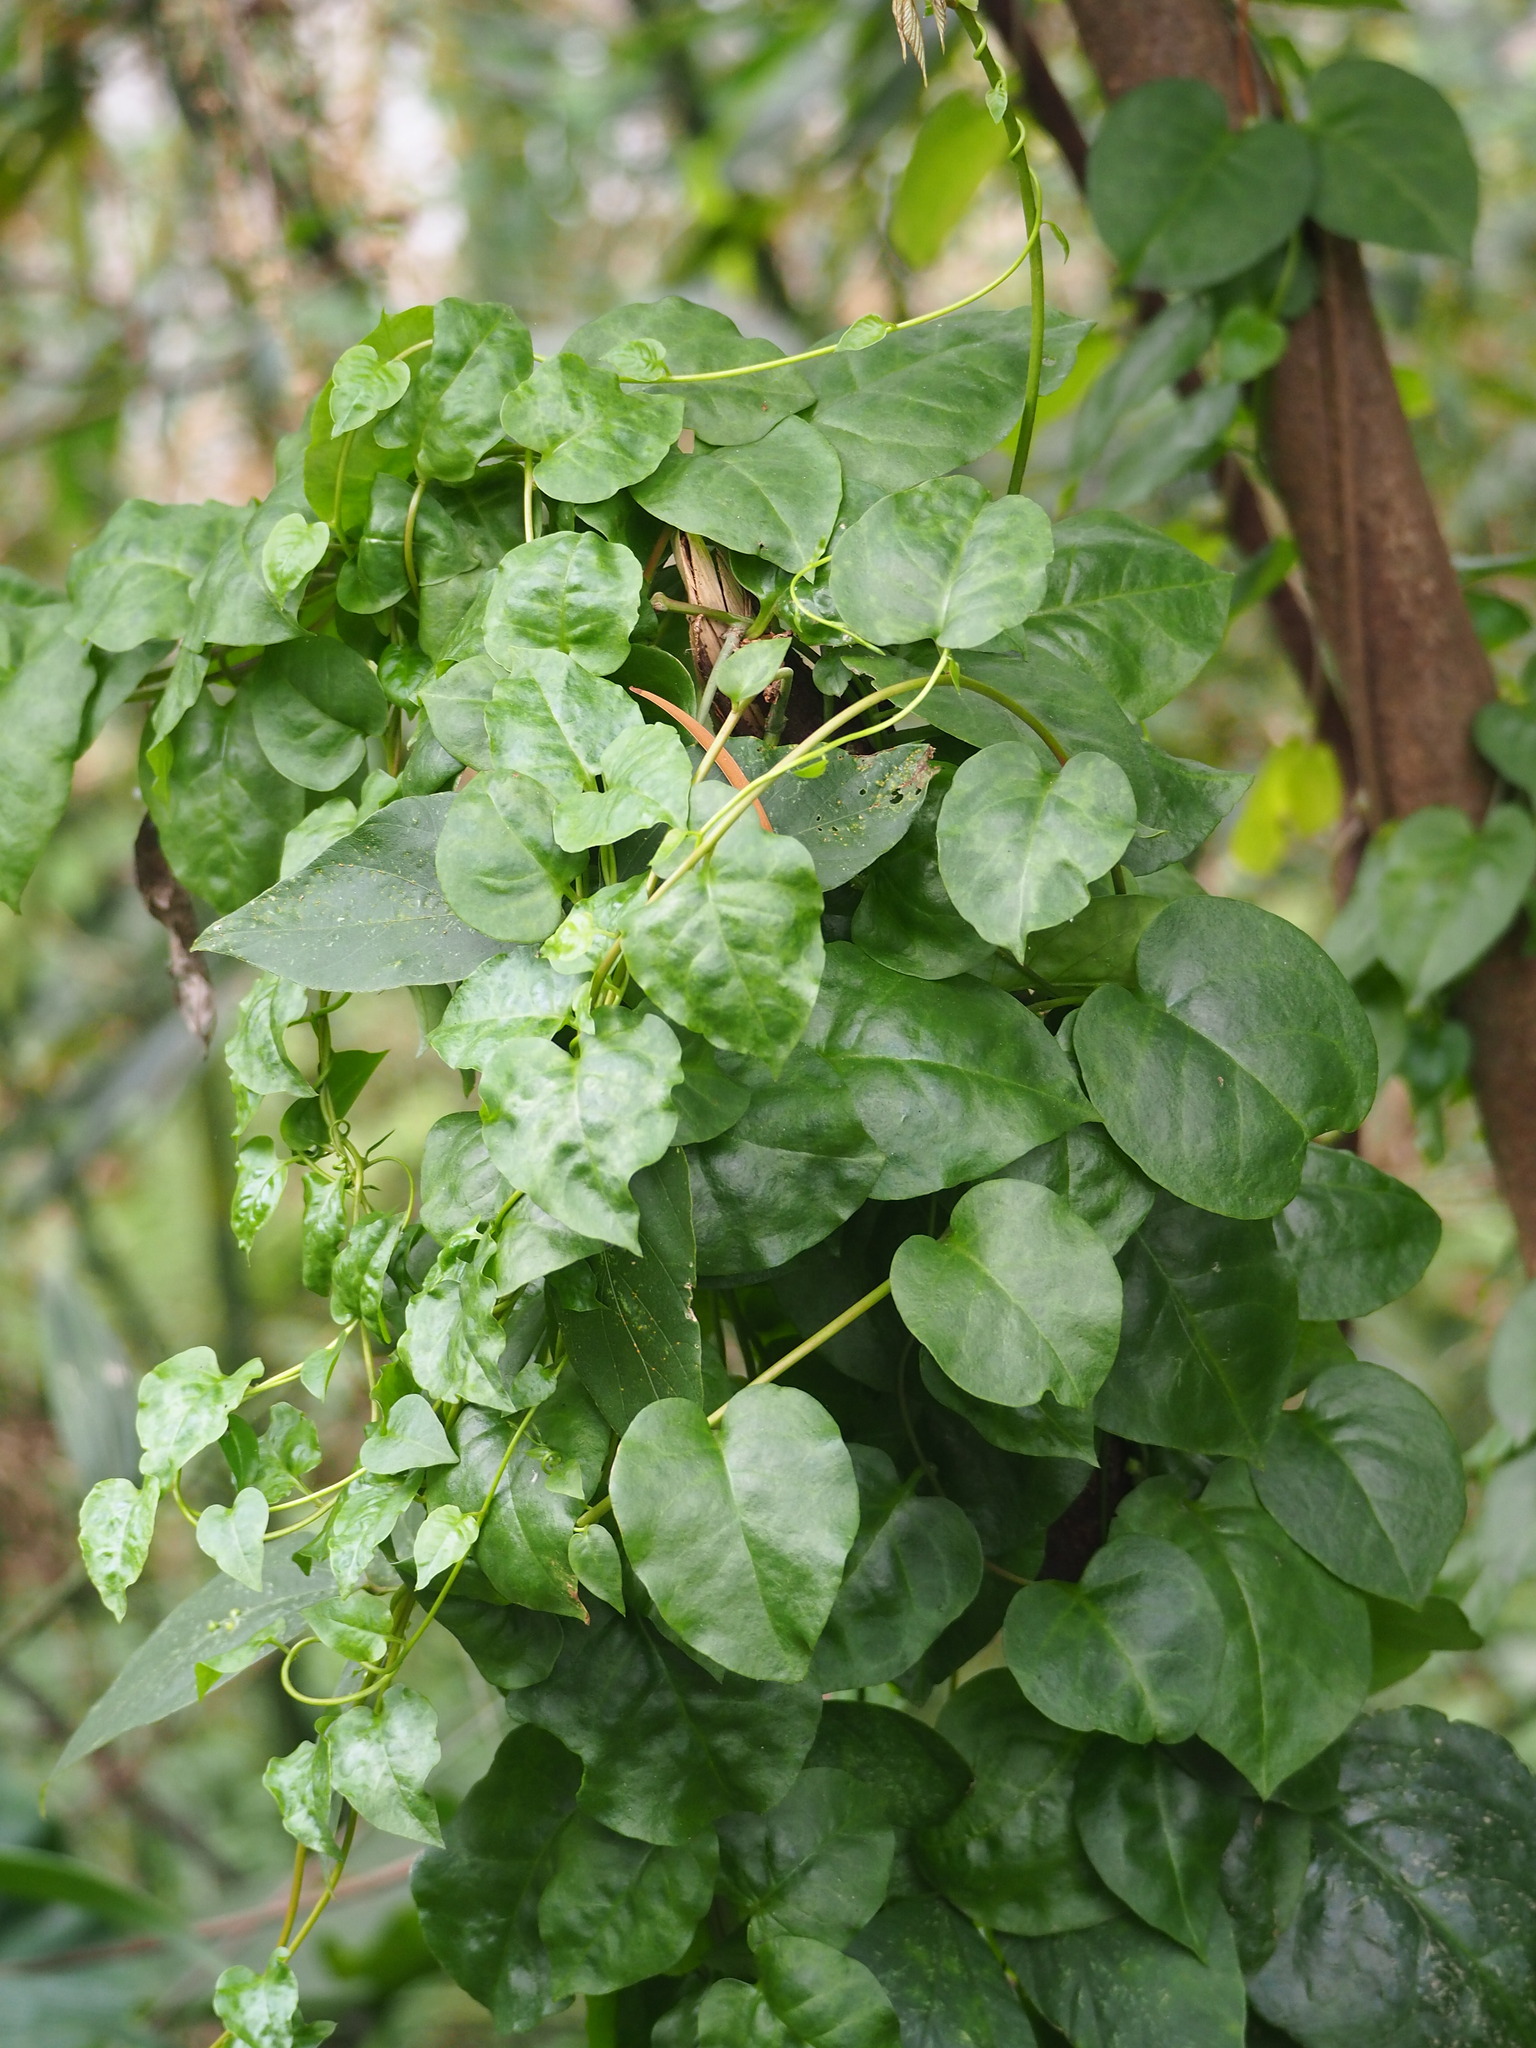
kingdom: Plantae
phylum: Tracheophyta
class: Magnoliopsida
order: Caryophyllales
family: Basellaceae
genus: Anredera
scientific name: Anredera cordifolia
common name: Heartleaf madeiravine
